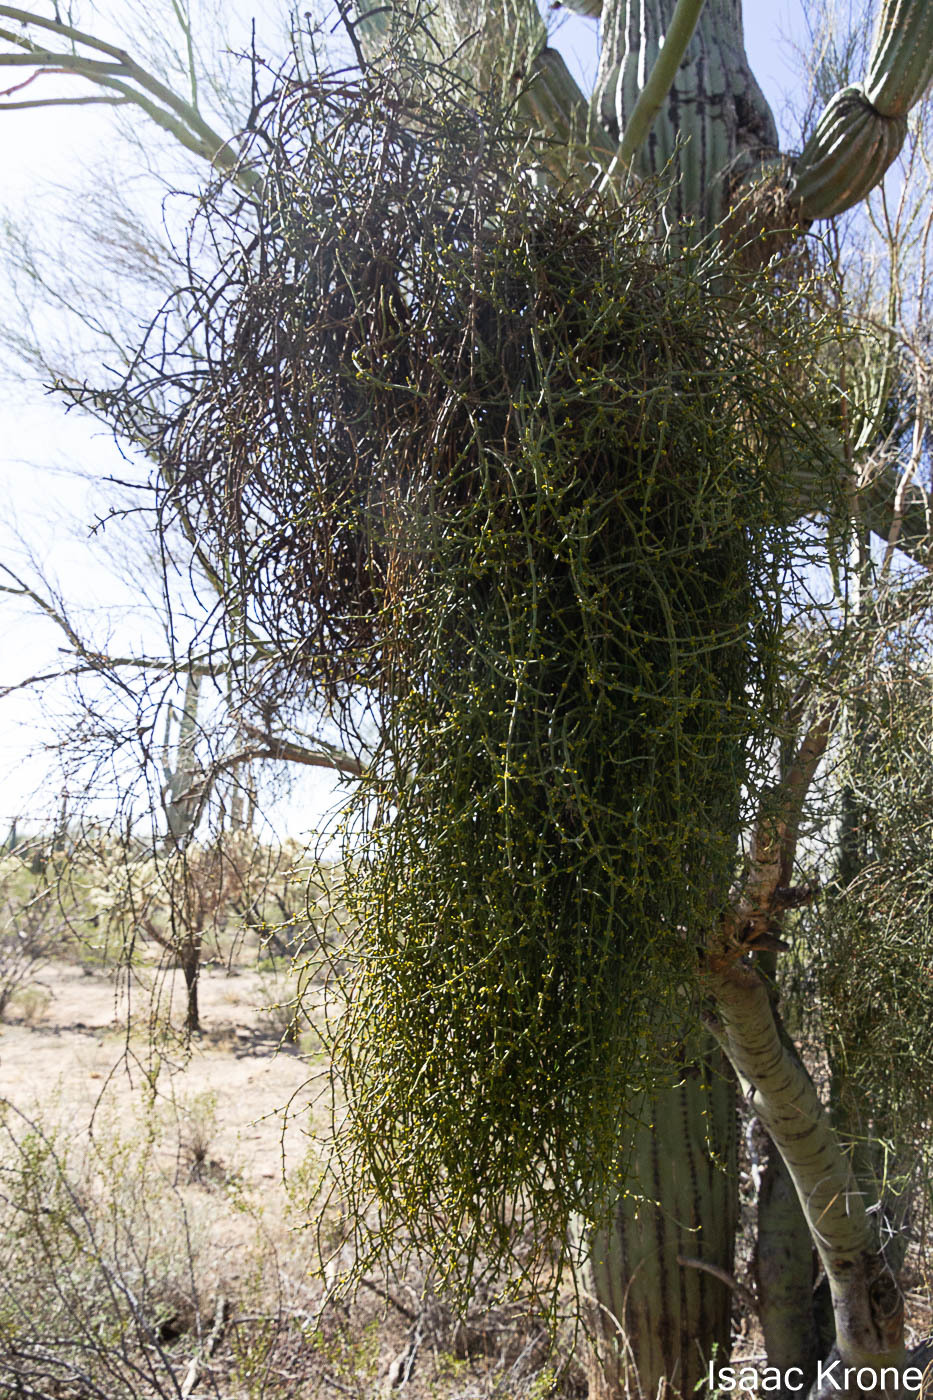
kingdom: Plantae
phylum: Tracheophyta
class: Magnoliopsida
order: Santalales
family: Viscaceae
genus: Phoradendron
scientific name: Phoradendron californicum
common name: Acacia mistletoe
